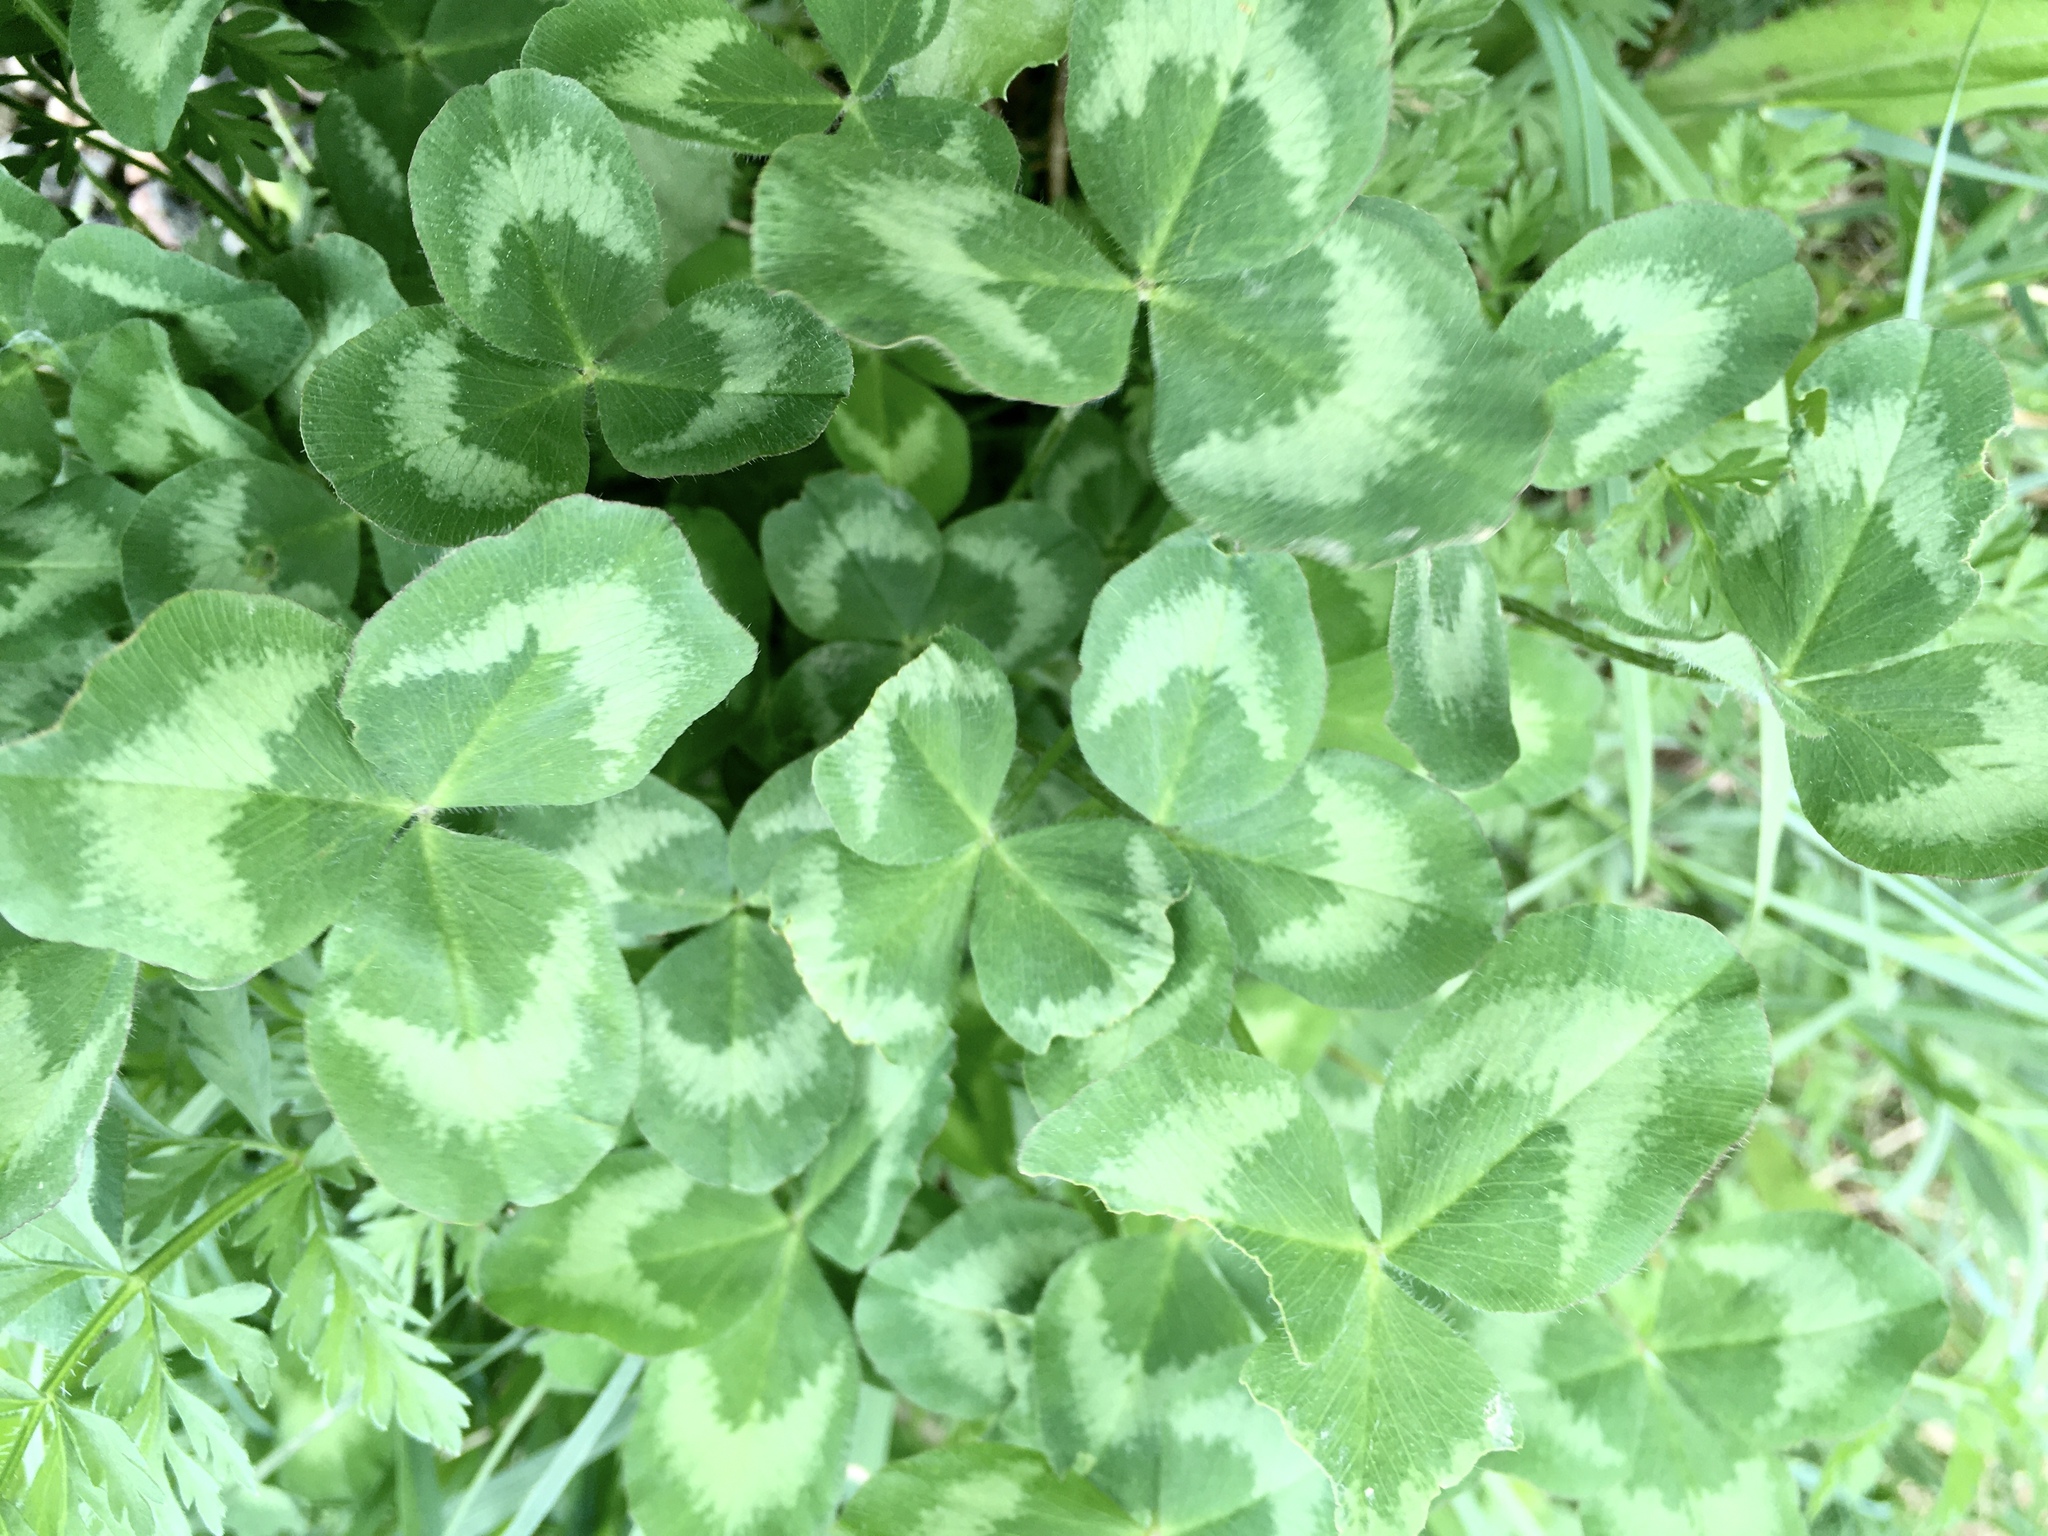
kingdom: Plantae
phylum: Tracheophyta
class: Magnoliopsida
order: Fabales
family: Fabaceae
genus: Trifolium
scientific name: Trifolium pratense
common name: Red clover
